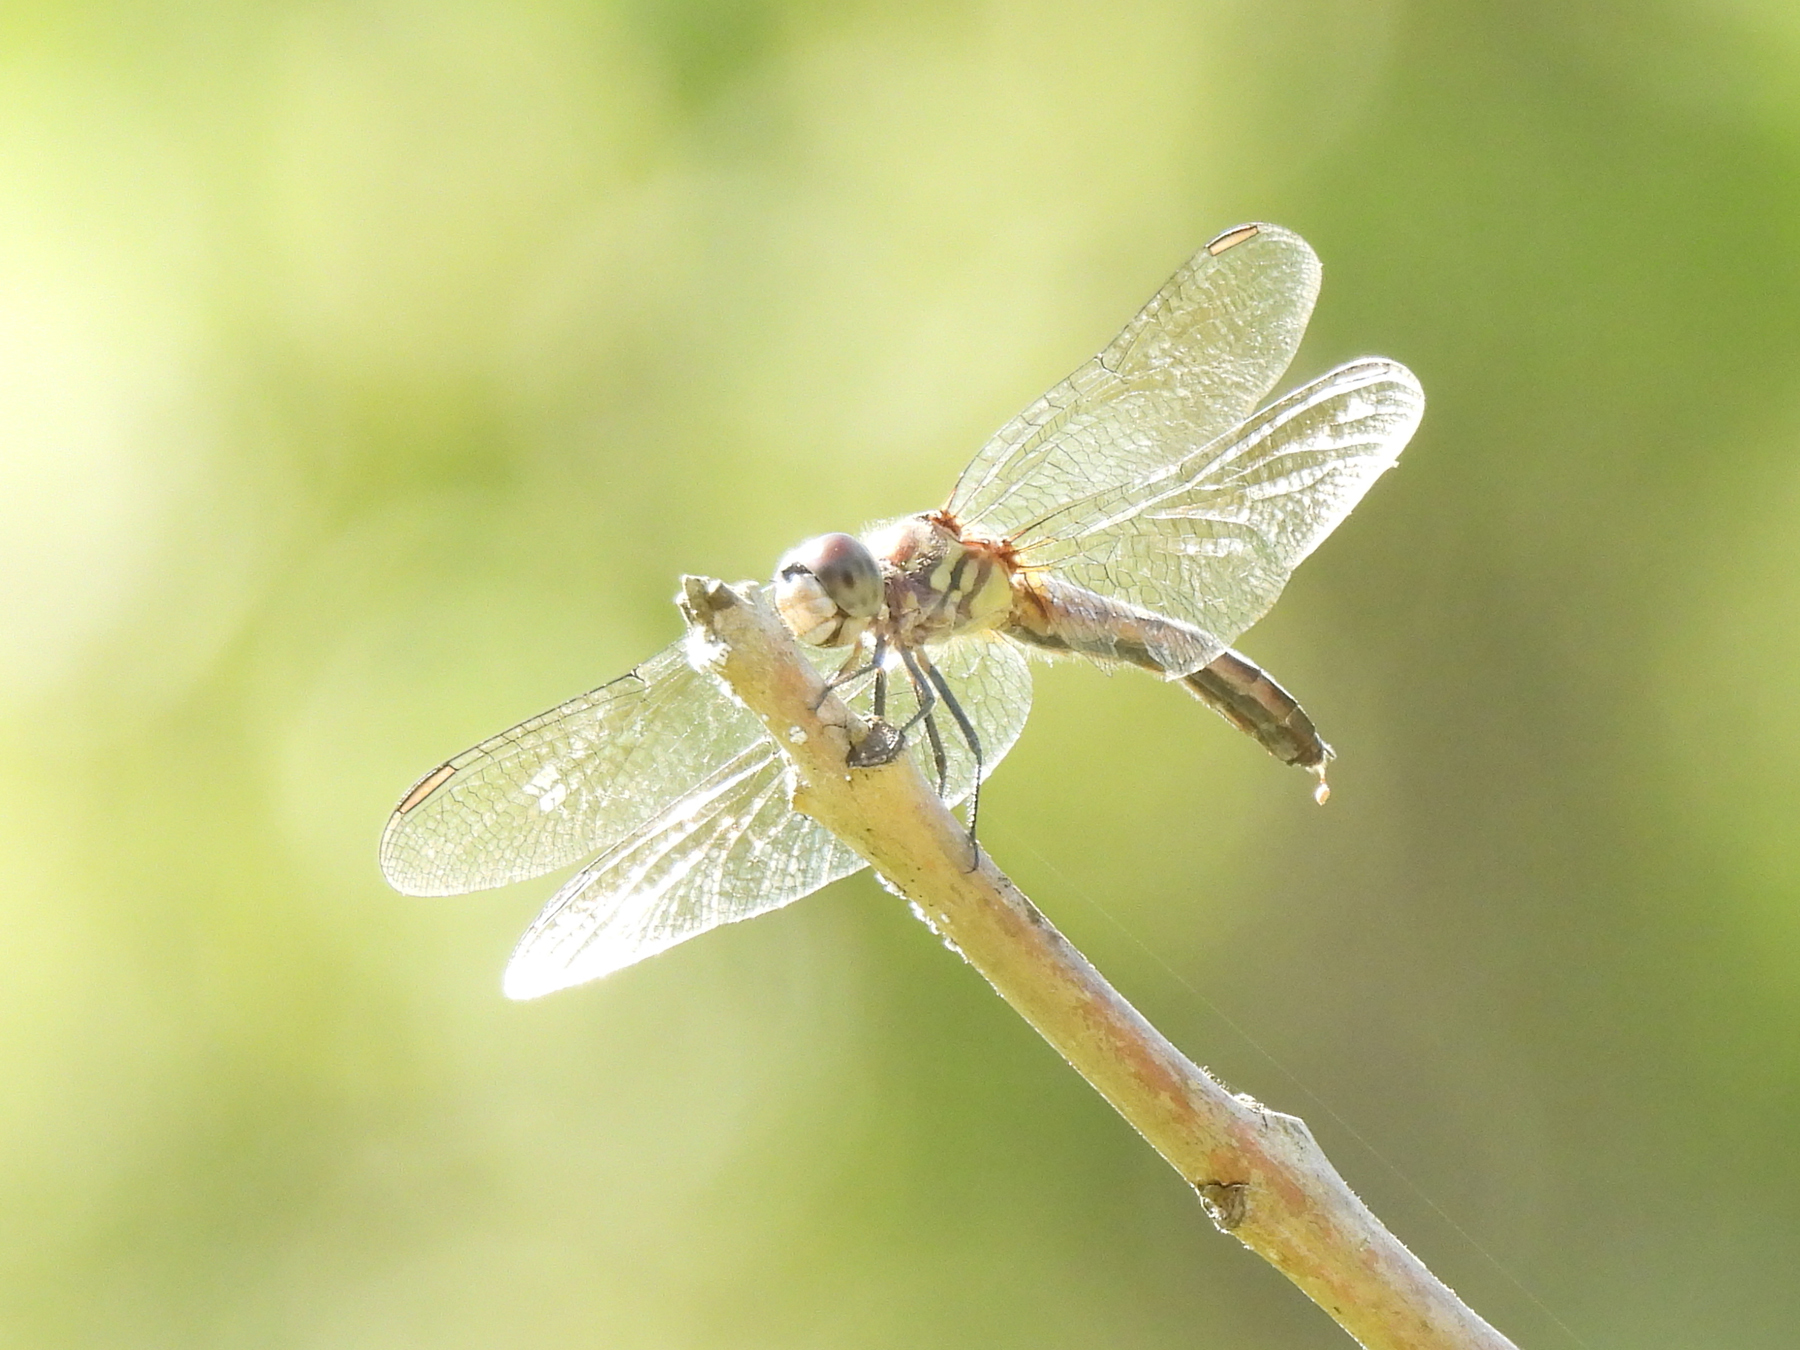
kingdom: Animalia
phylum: Arthropoda
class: Insecta
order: Odonata
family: Libellulidae
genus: Pachydiplax
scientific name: Pachydiplax longipennis
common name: Blue dasher
